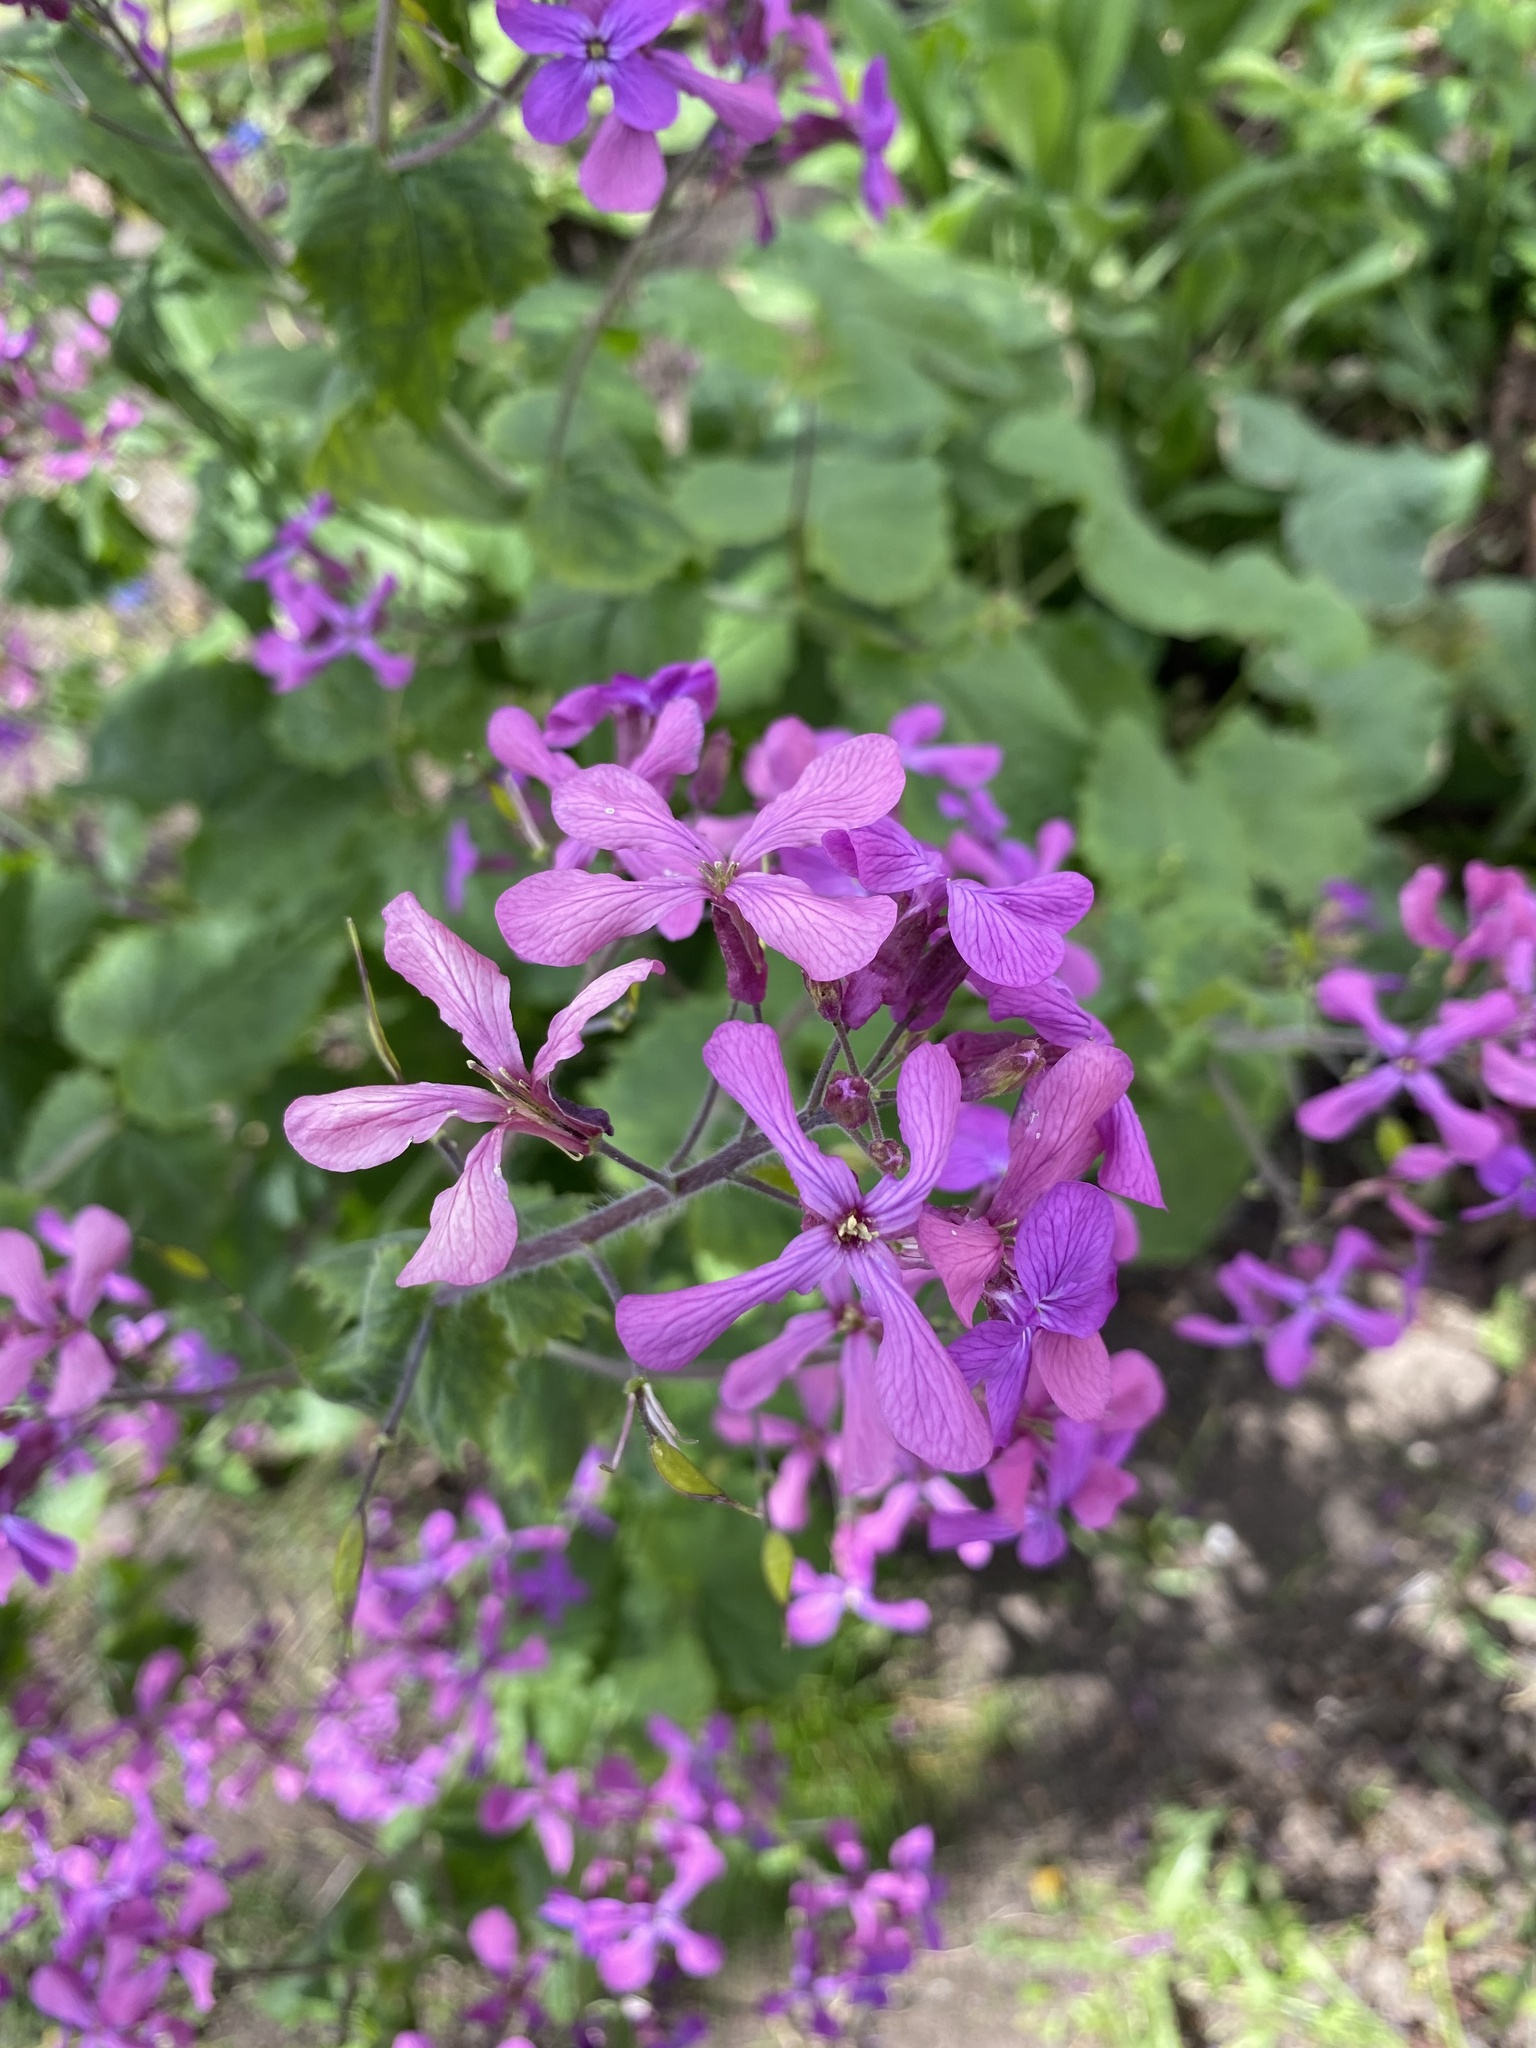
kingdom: Plantae
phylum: Tracheophyta
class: Magnoliopsida
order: Brassicales
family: Brassicaceae
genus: Lunaria
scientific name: Lunaria annua
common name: Honesty
